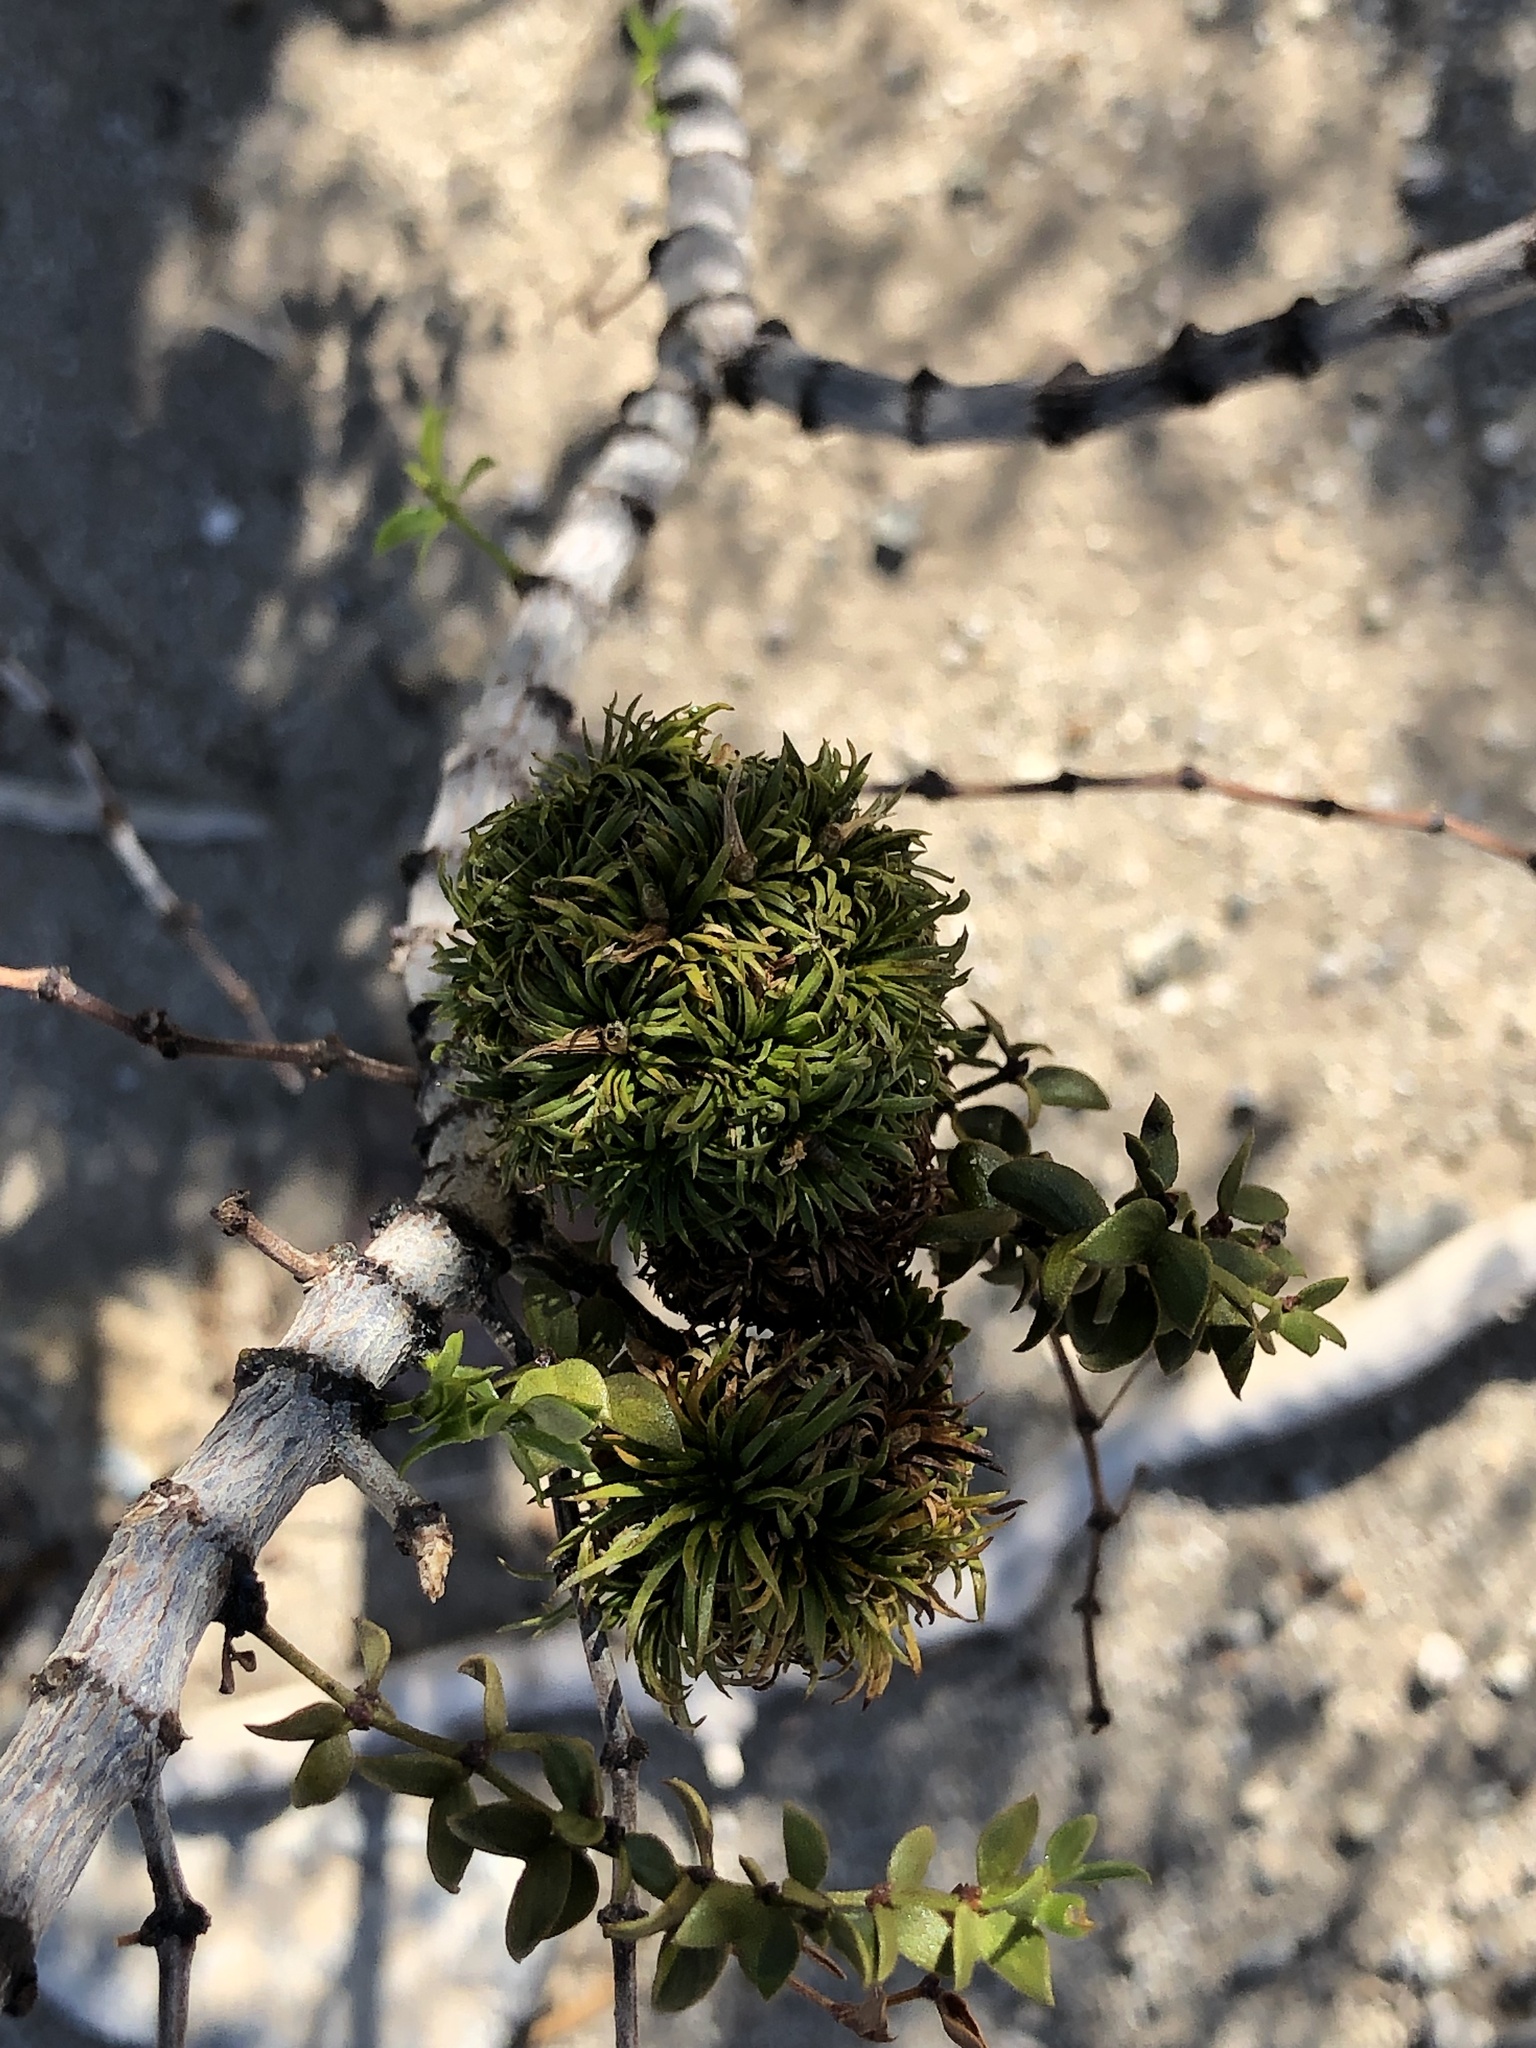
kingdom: Animalia
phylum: Arthropoda
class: Insecta
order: Diptera
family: Cecidomyiidae
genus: Asphondylia
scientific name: Asphondylia auripila
